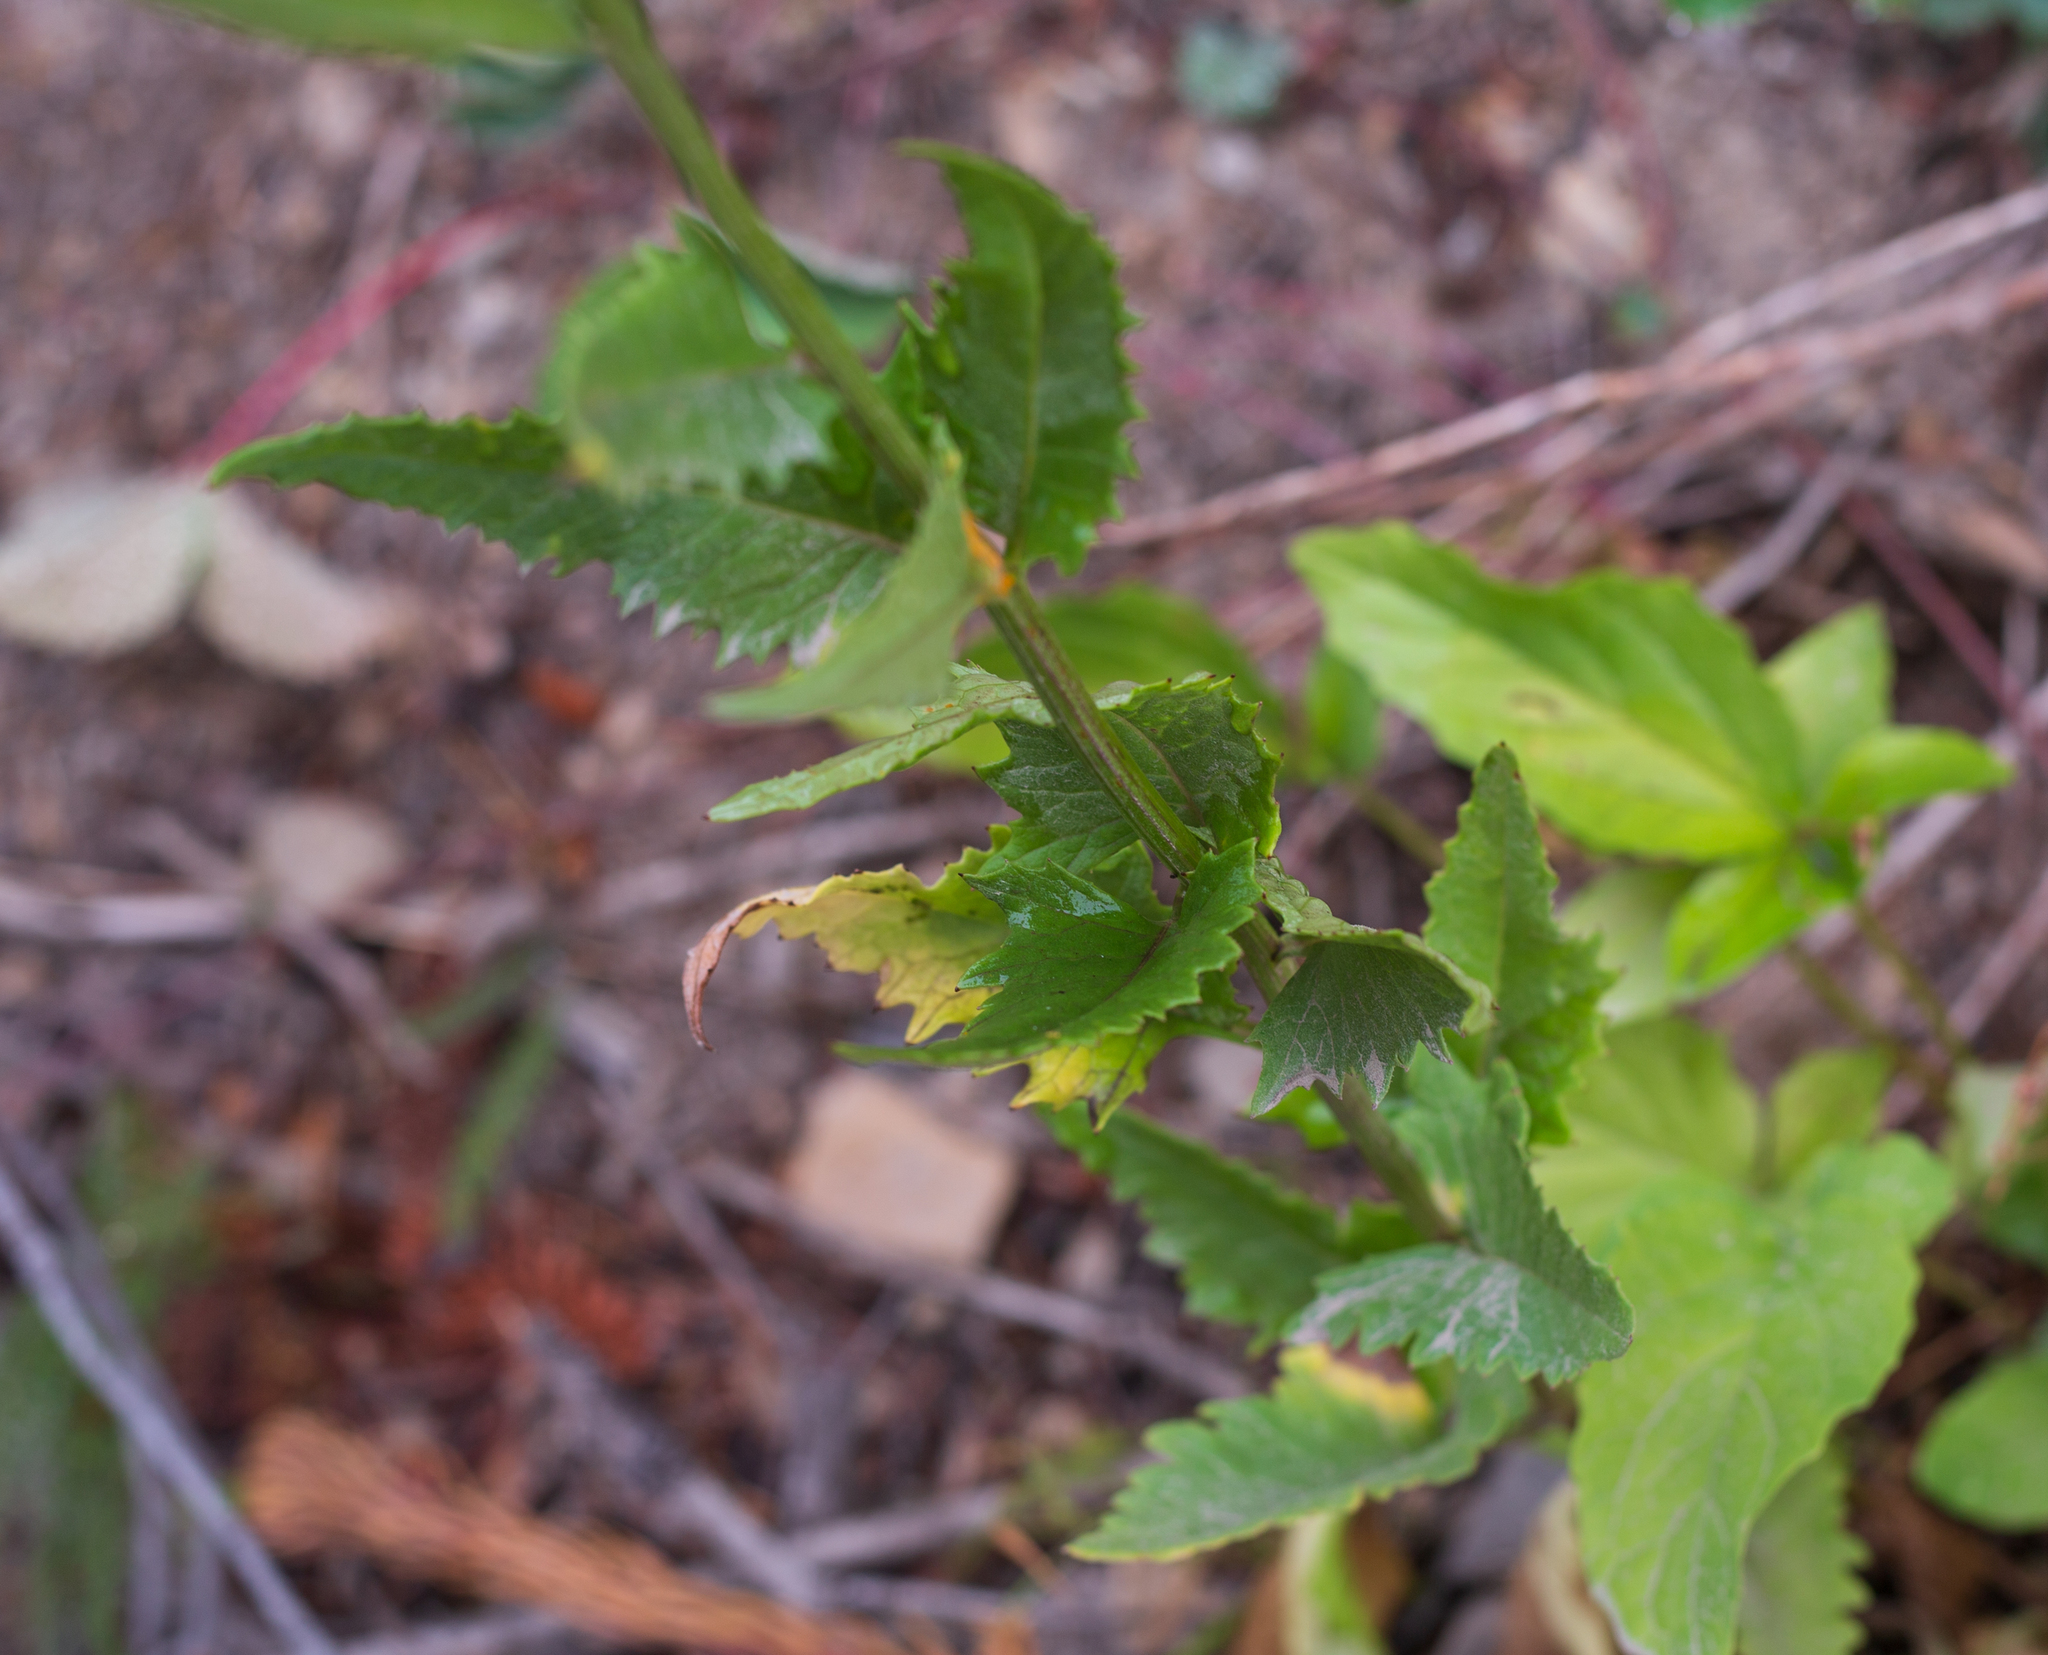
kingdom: Plantae
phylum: Tracheophyta
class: Magnoliopsida
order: Asterales
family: Asteraceae
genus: Senecio
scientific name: Senecio triangularis
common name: Arrowleaf butterweed
